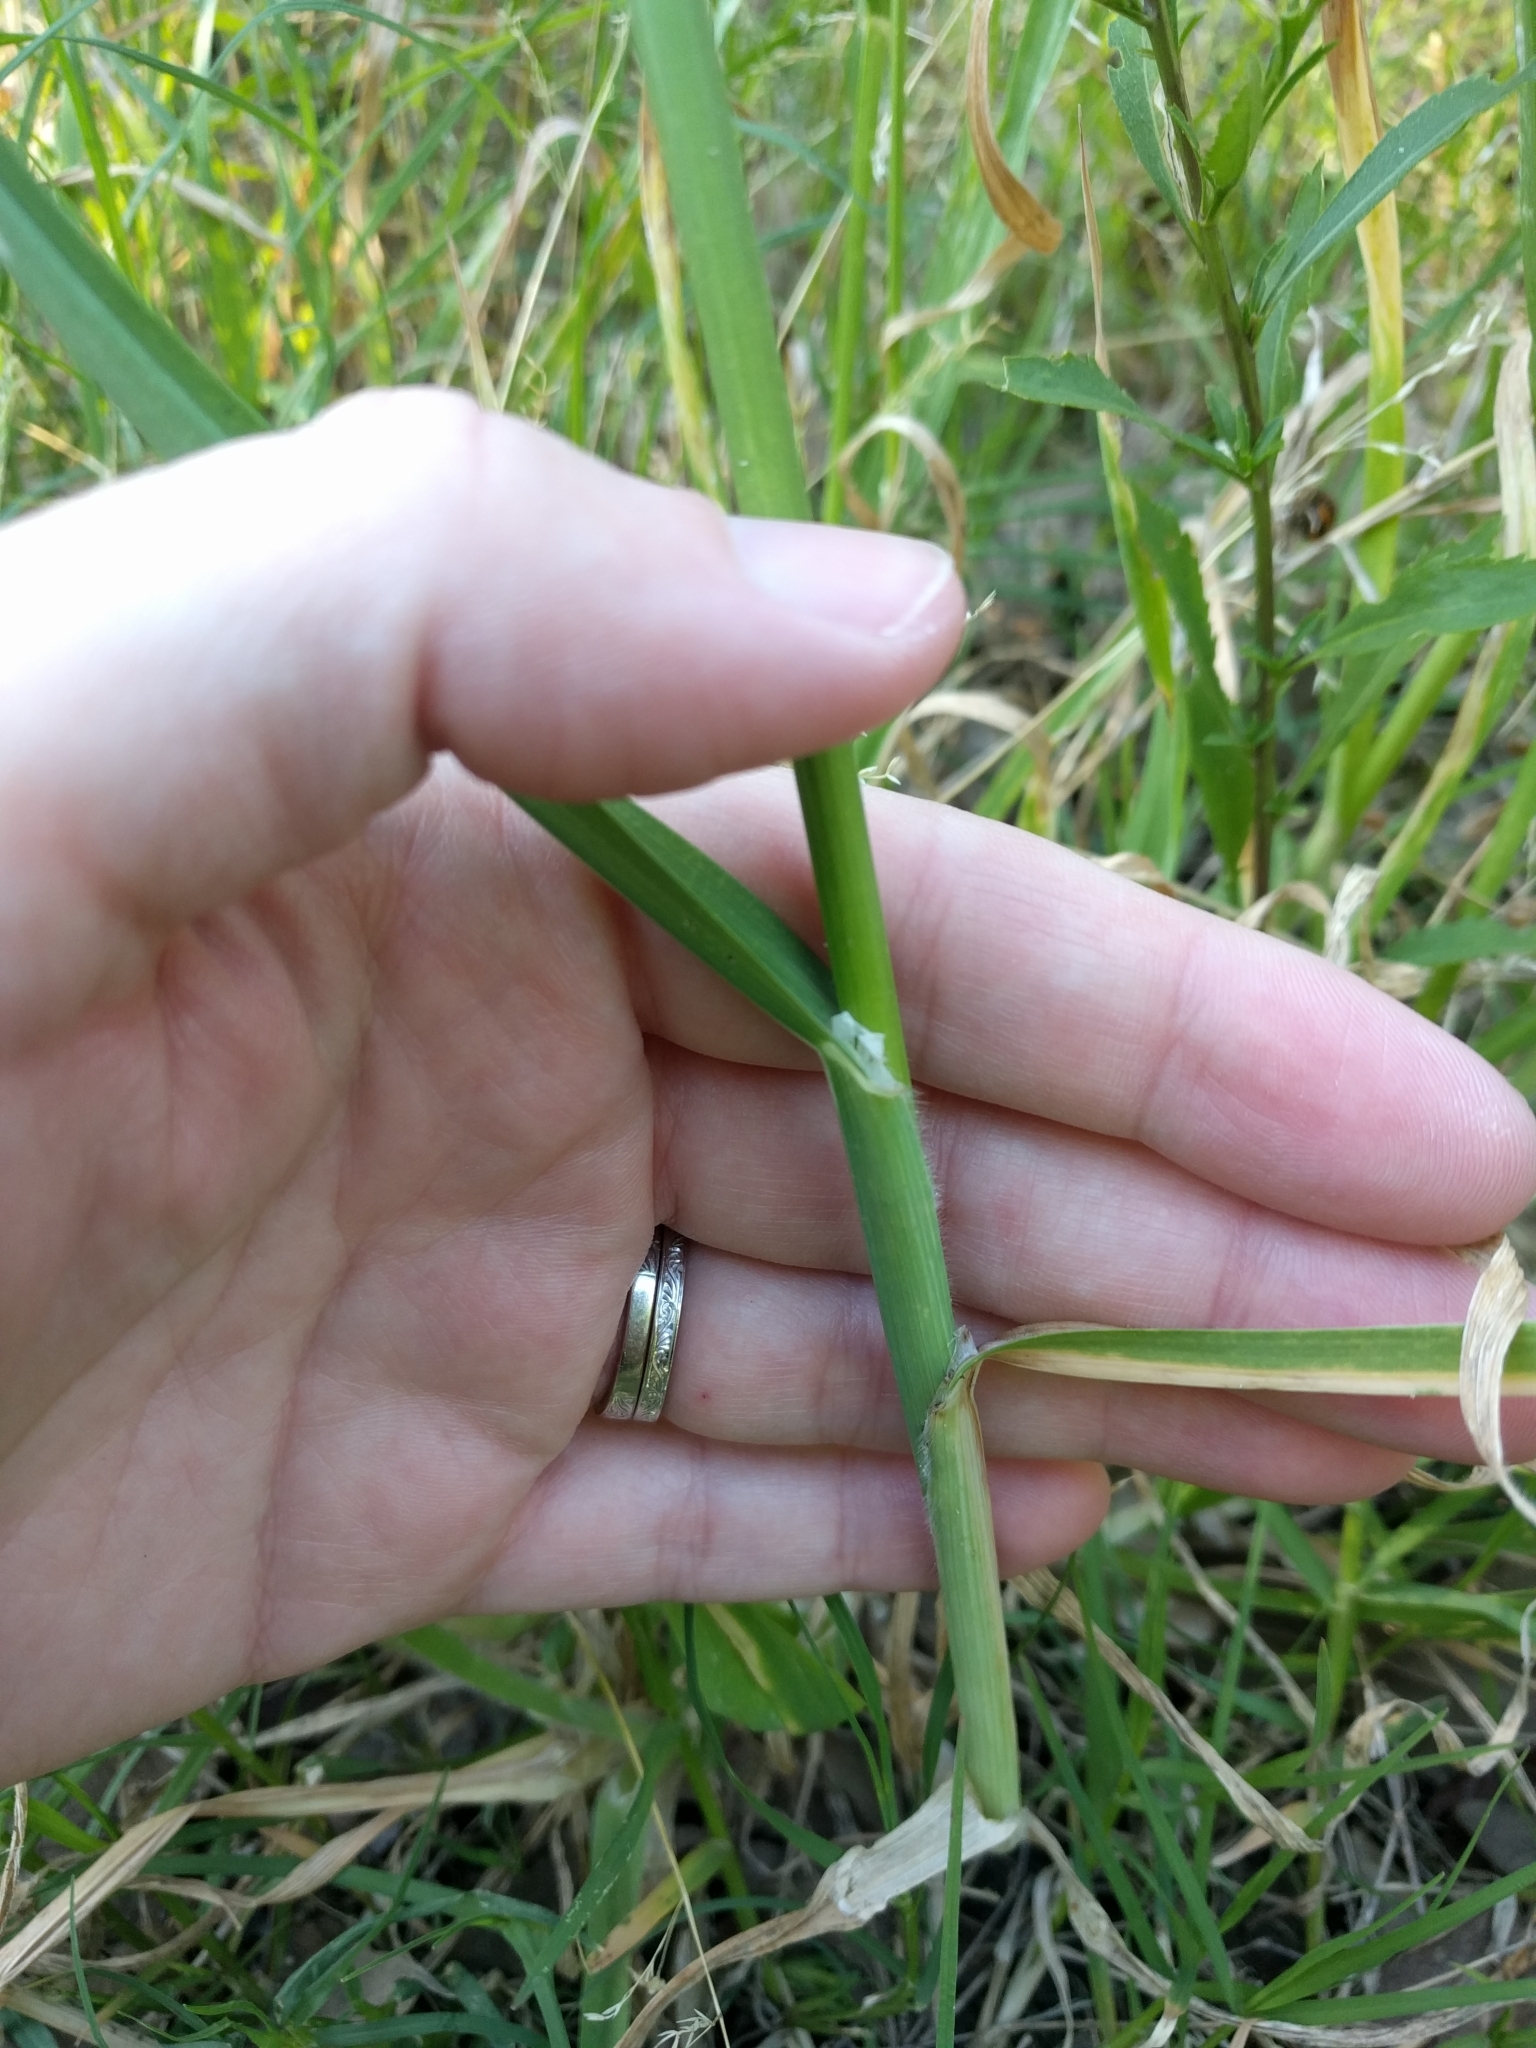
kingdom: Plantae
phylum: Tracheophyta
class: Liliopsida
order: Poales
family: Poaceae
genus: Bromus
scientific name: Bromus catharticus
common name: Rescuegrass
